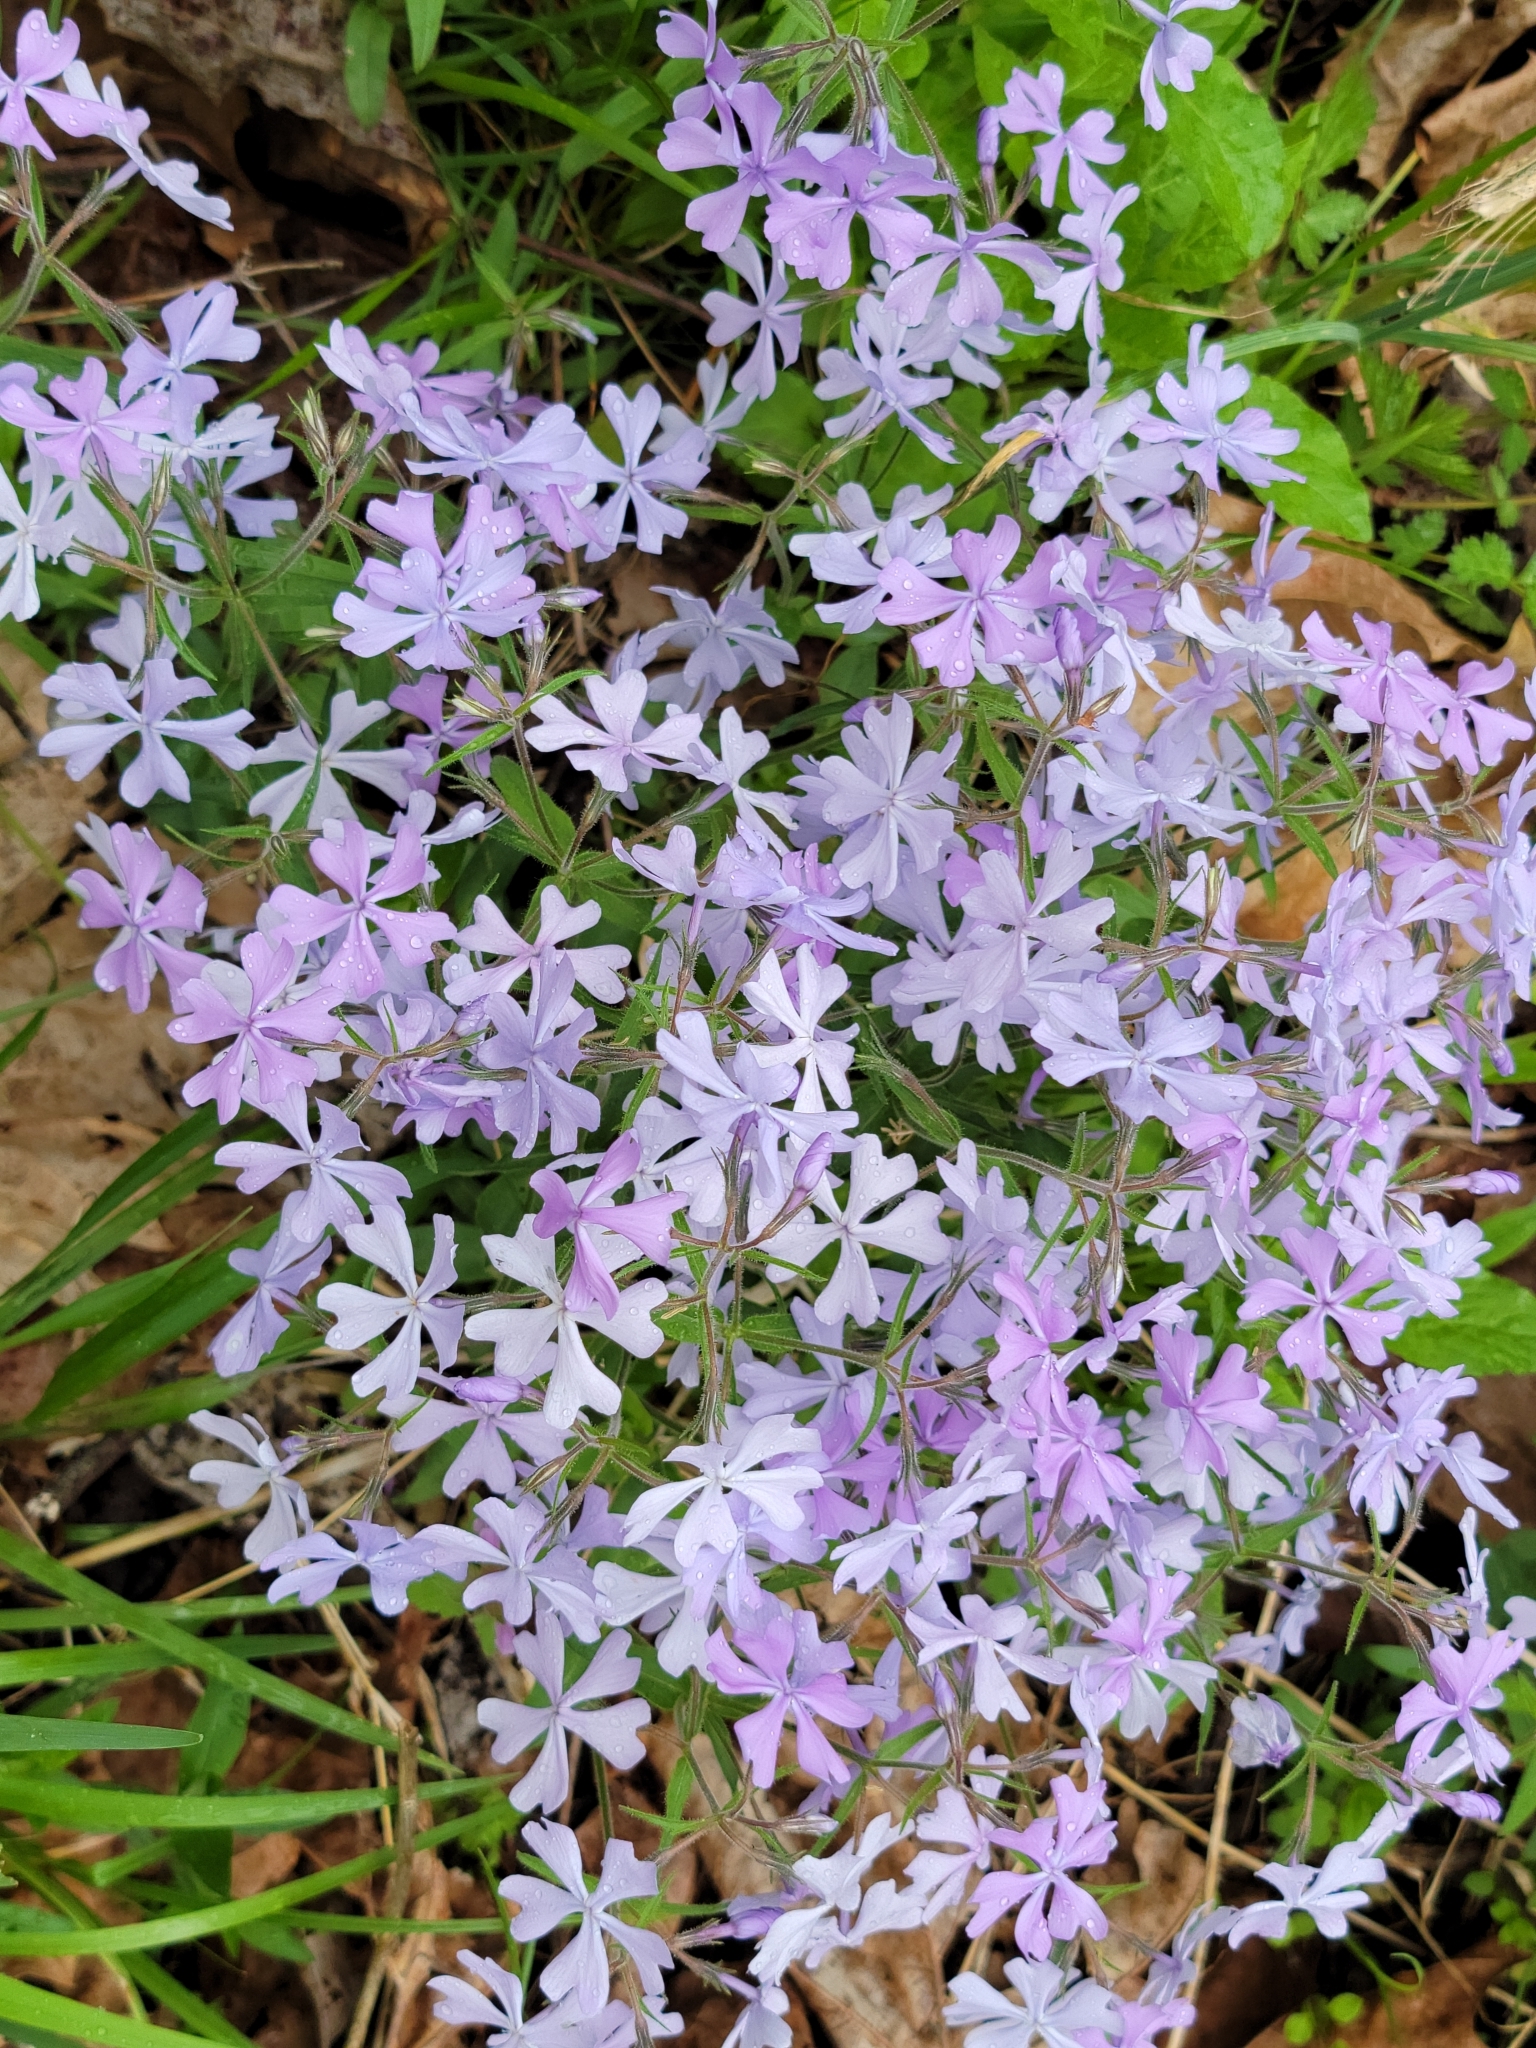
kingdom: Plantae
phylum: Tracheophyta
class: Magnoliopsida
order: Ericales
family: Polemoniaceae
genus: Phlox
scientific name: Phlox divaricata
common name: Blue phlox
